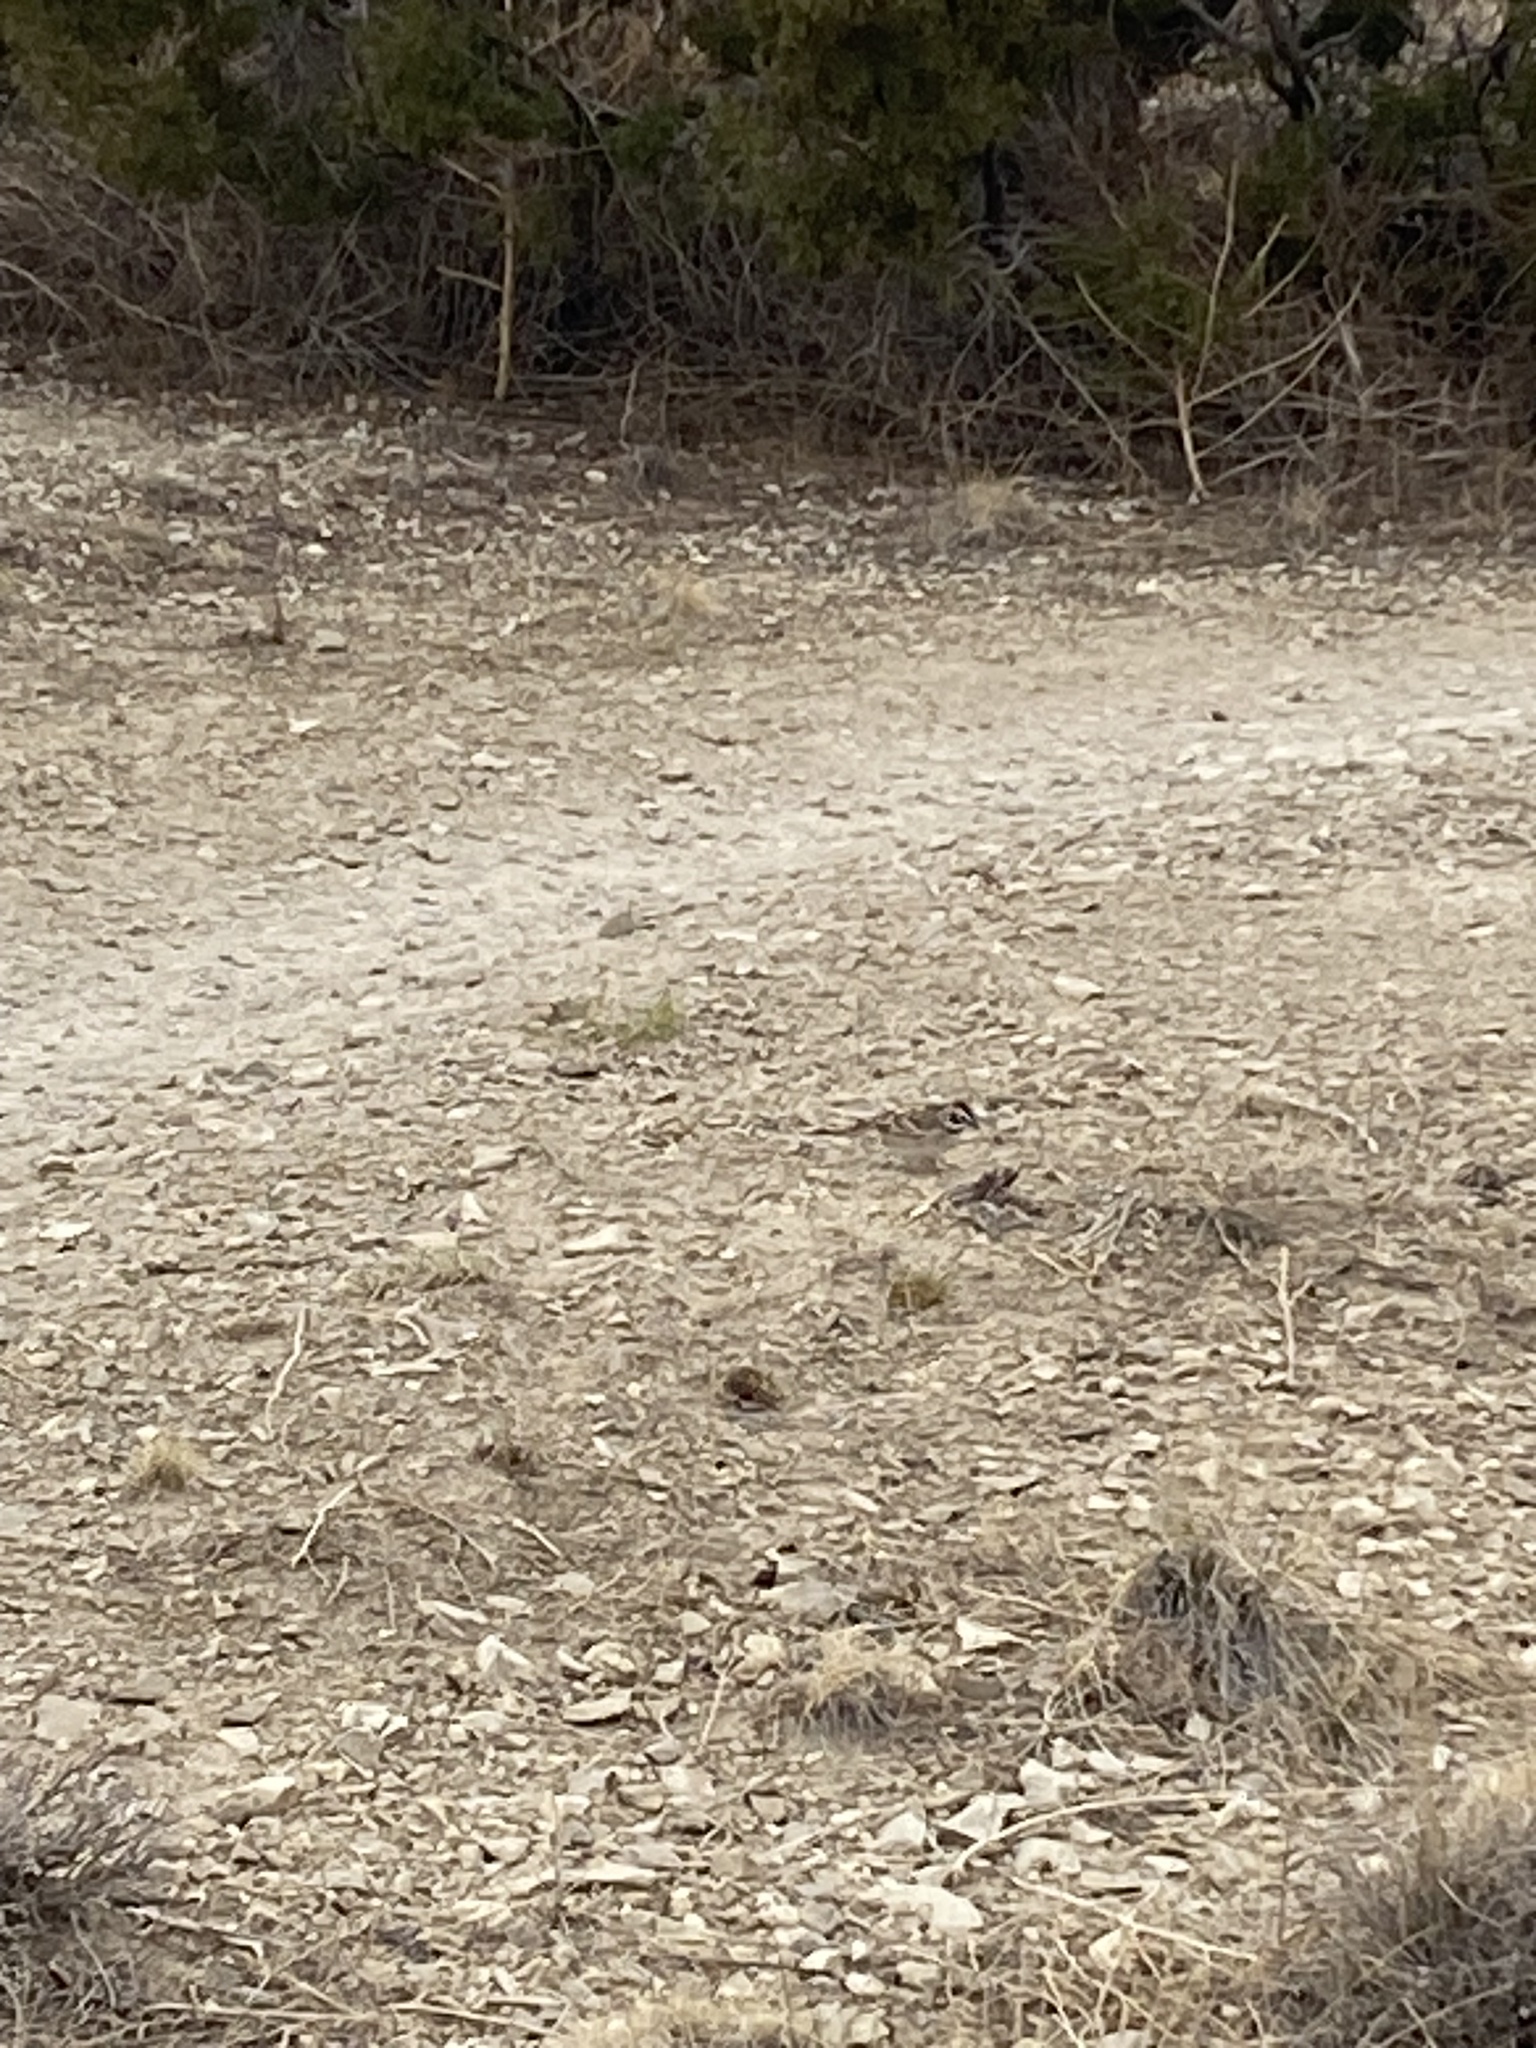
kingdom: Animalia
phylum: Chordata
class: Aves
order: Passeriformes
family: Passerellidae
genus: Chondestes
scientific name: Chondestes grammacus
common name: Lark sparrow
